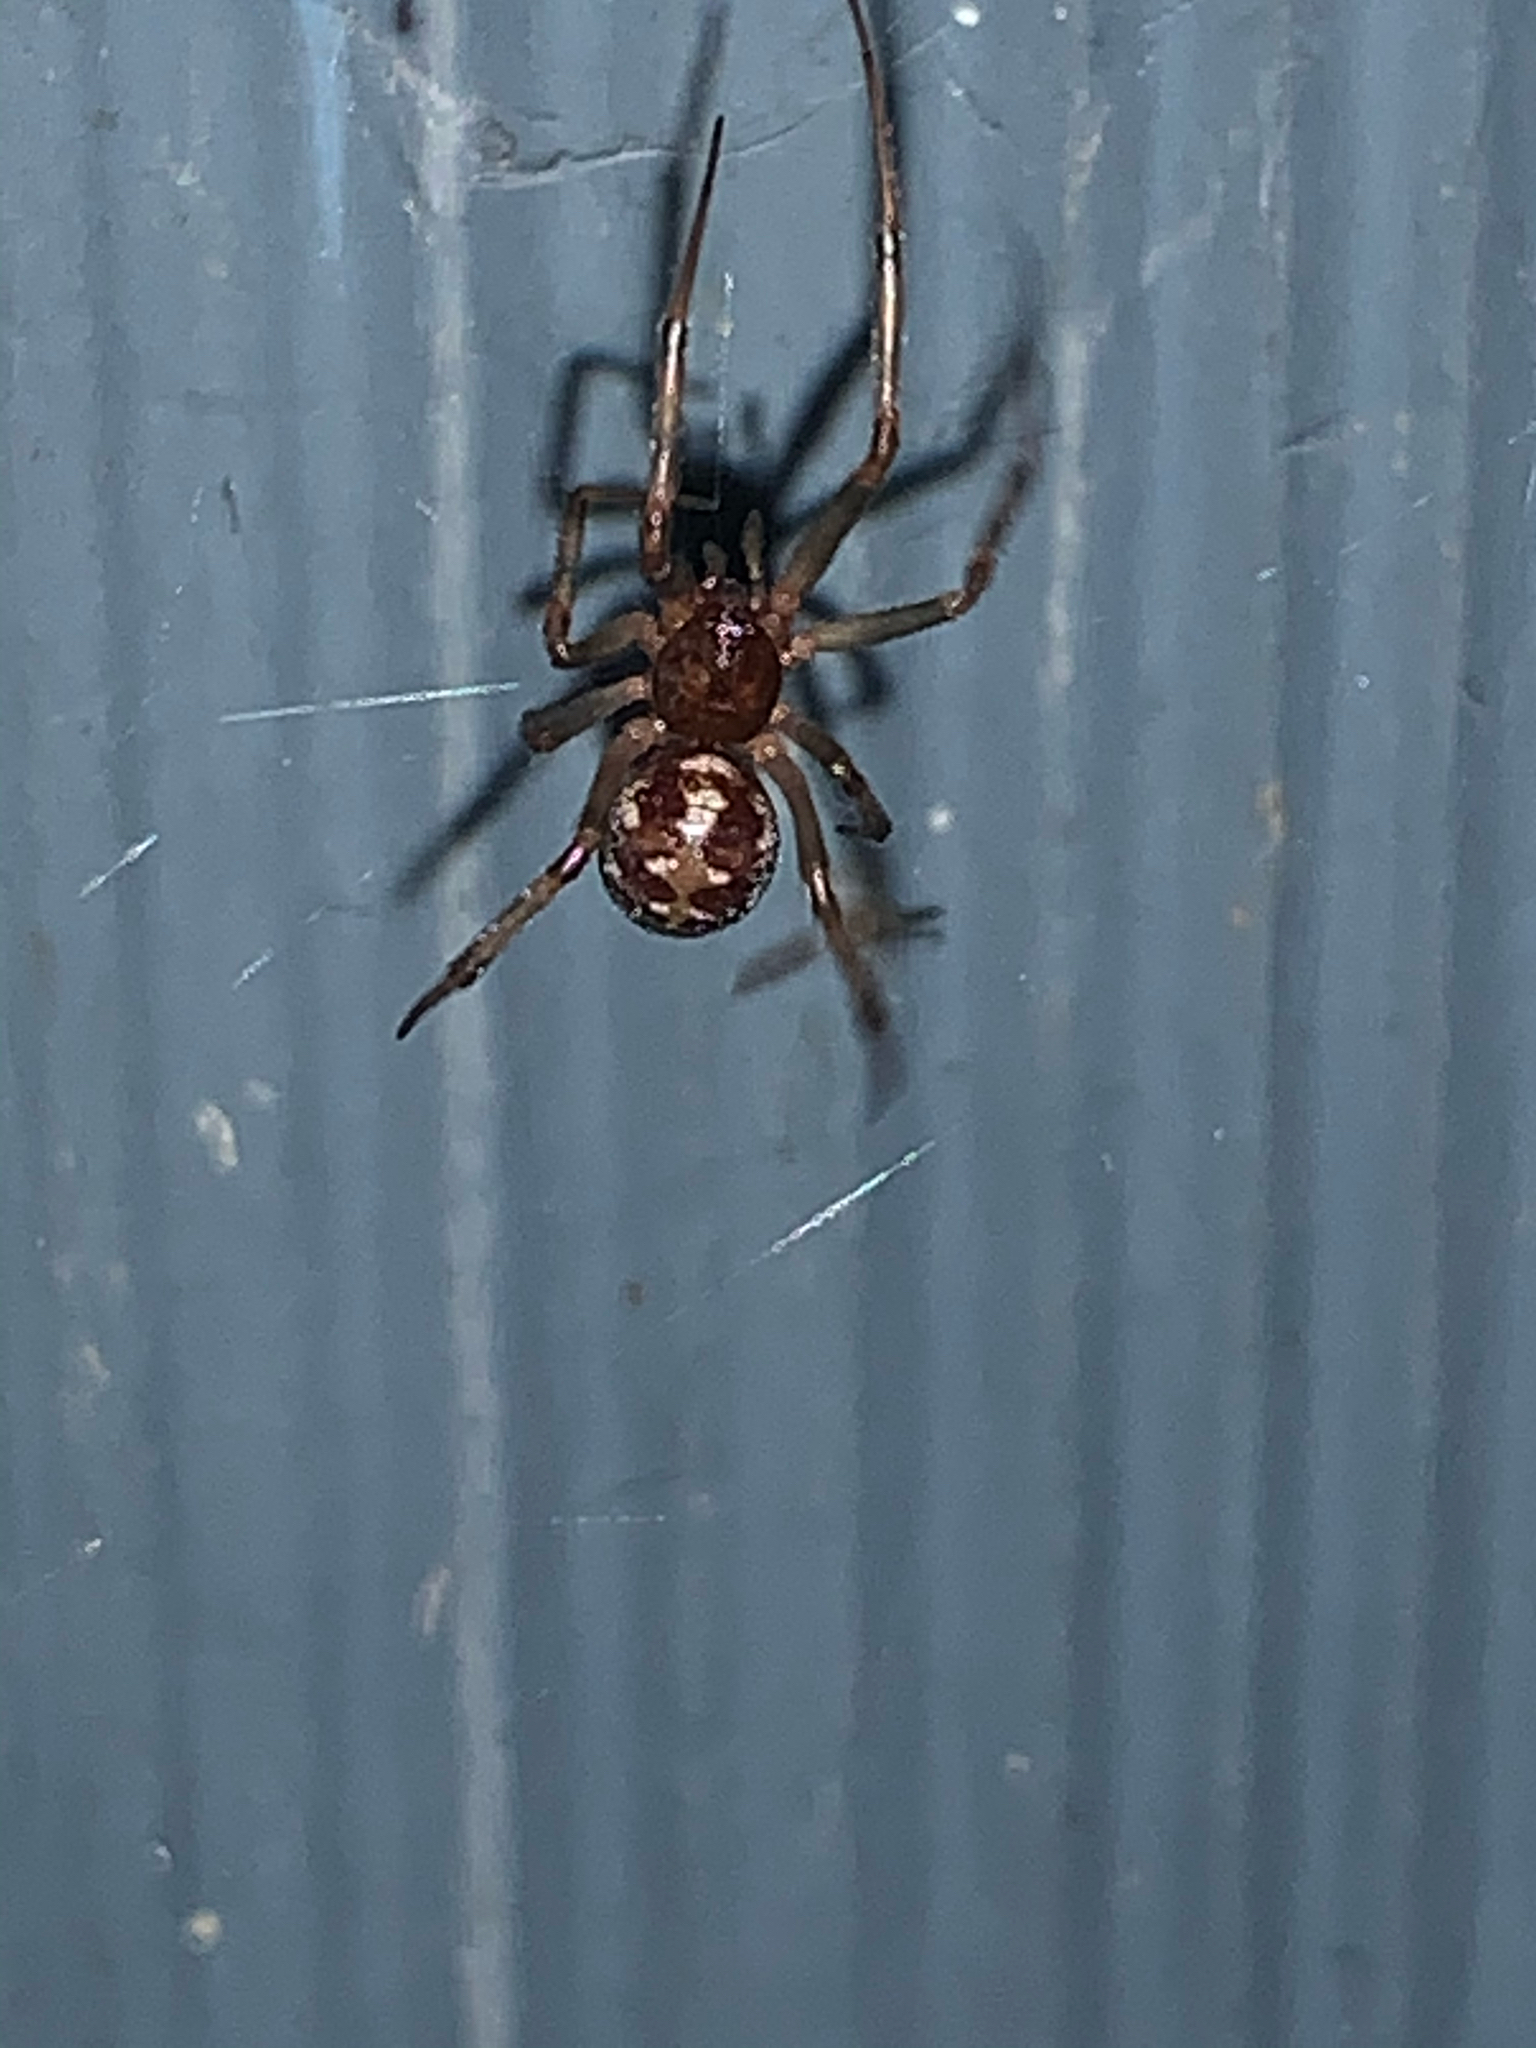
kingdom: Animalia
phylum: Arthropoda
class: Arachnida
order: Araneae
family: Theridiidae
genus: Steatoda
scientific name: Steatoda triangulosa
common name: Triangulate bud spider
